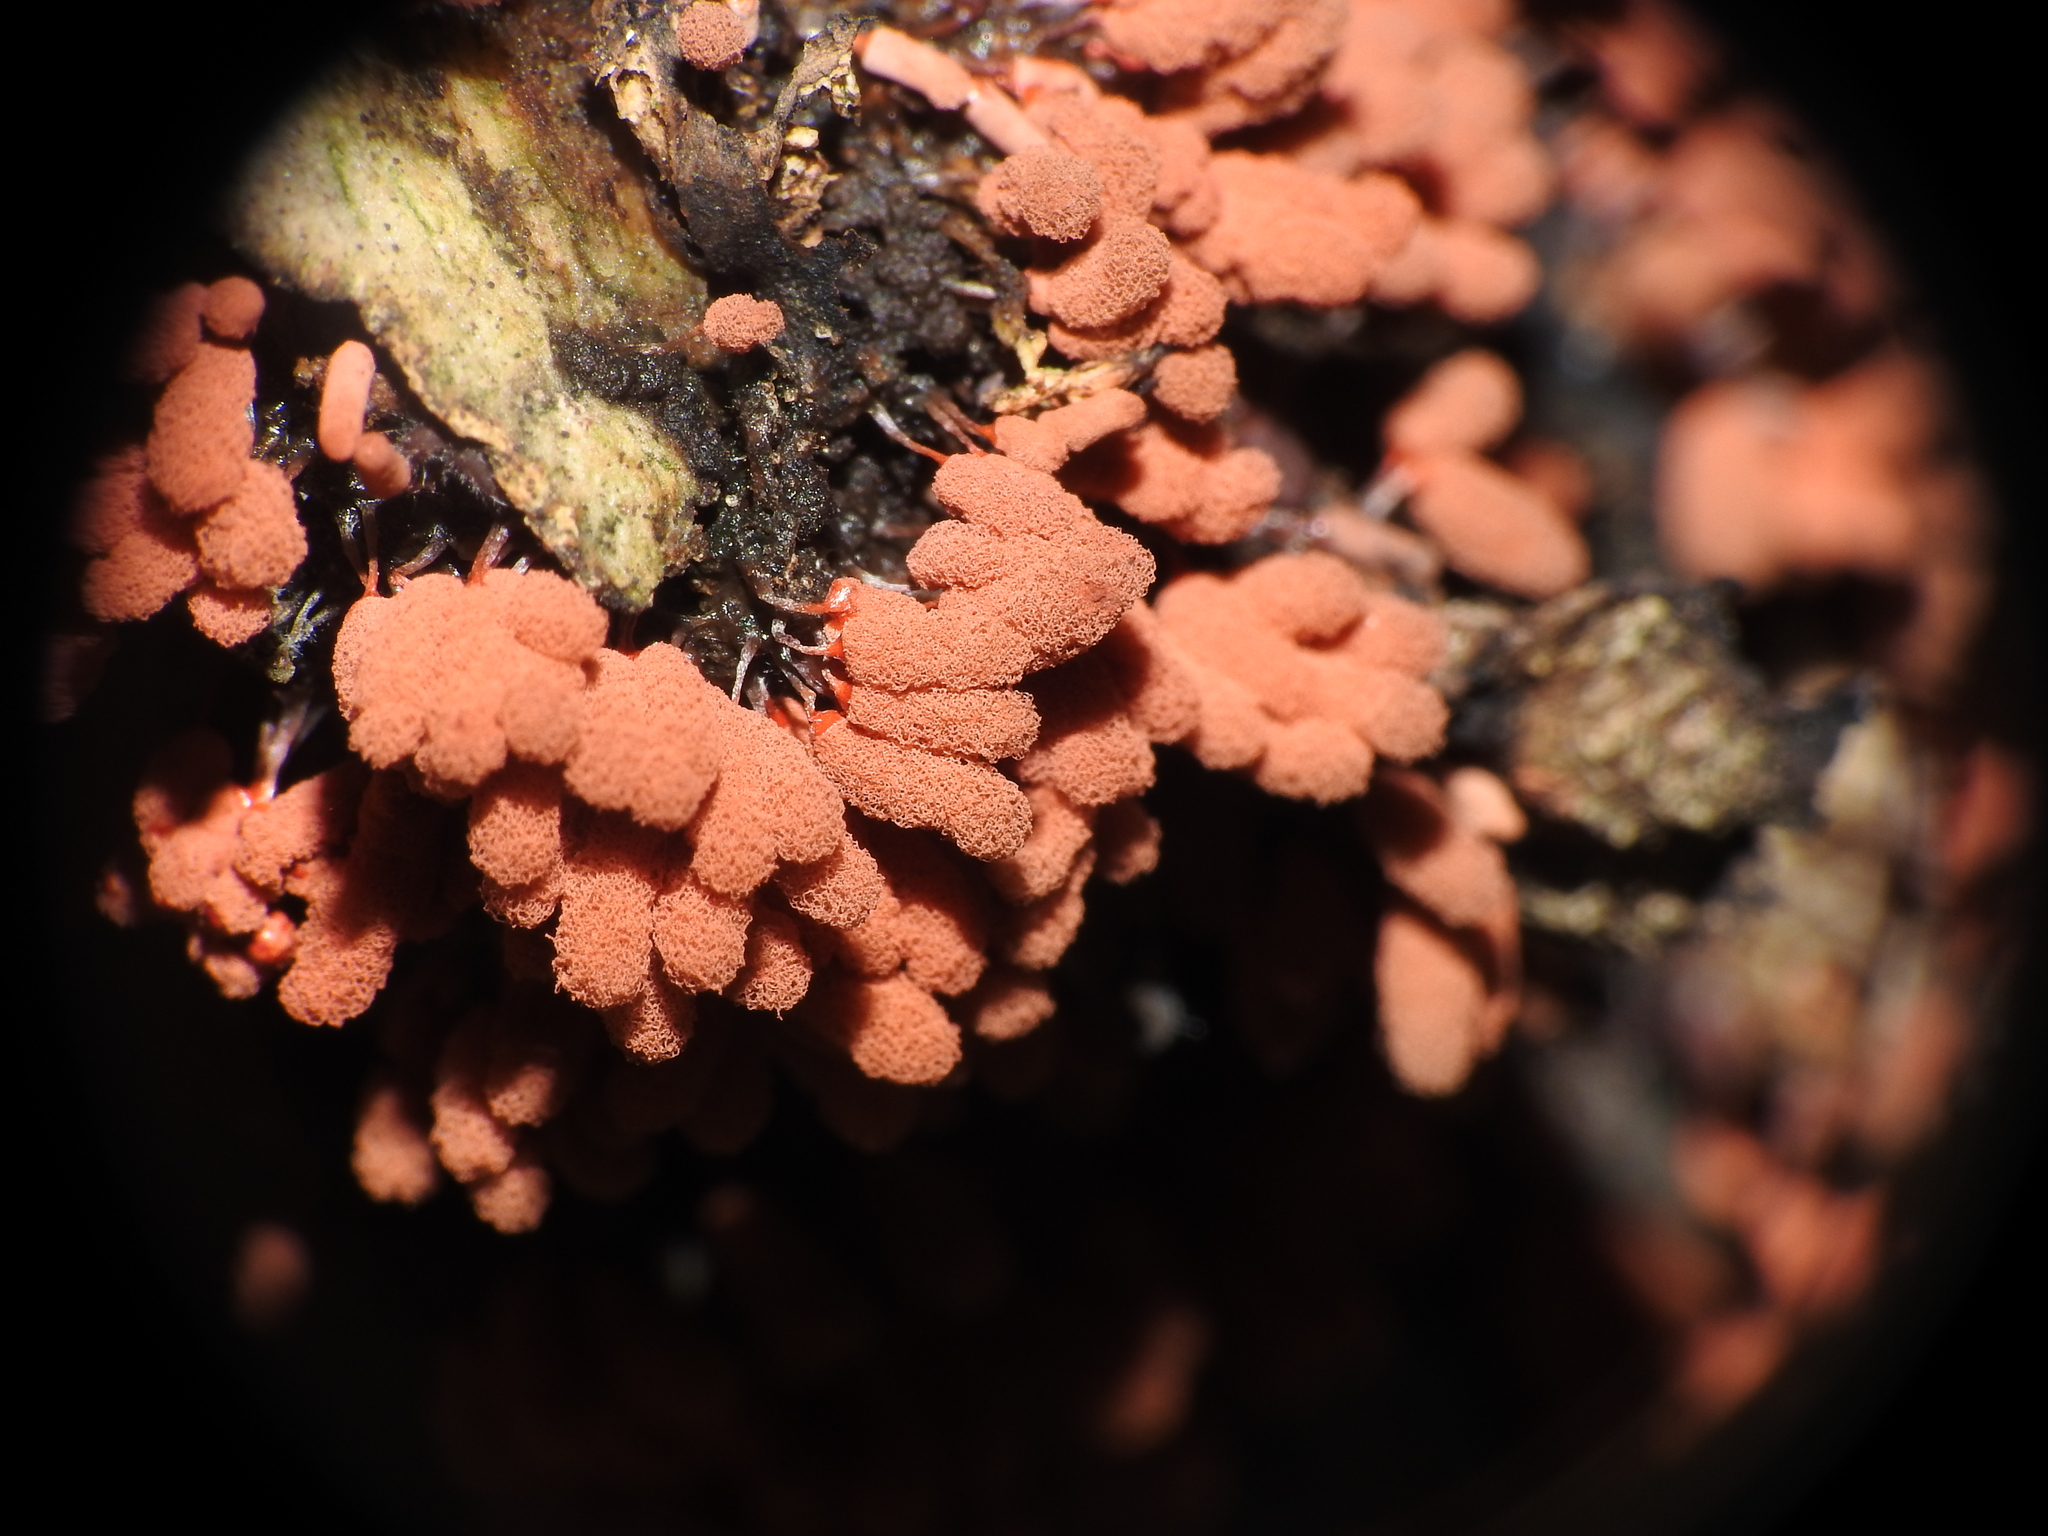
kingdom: Protozoa
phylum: Mycetozoa
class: Myxomycetes
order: Trichiales
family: Arcyriaceae
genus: Arcyria
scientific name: Arcyria denudata
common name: Carnival candy slime mold
